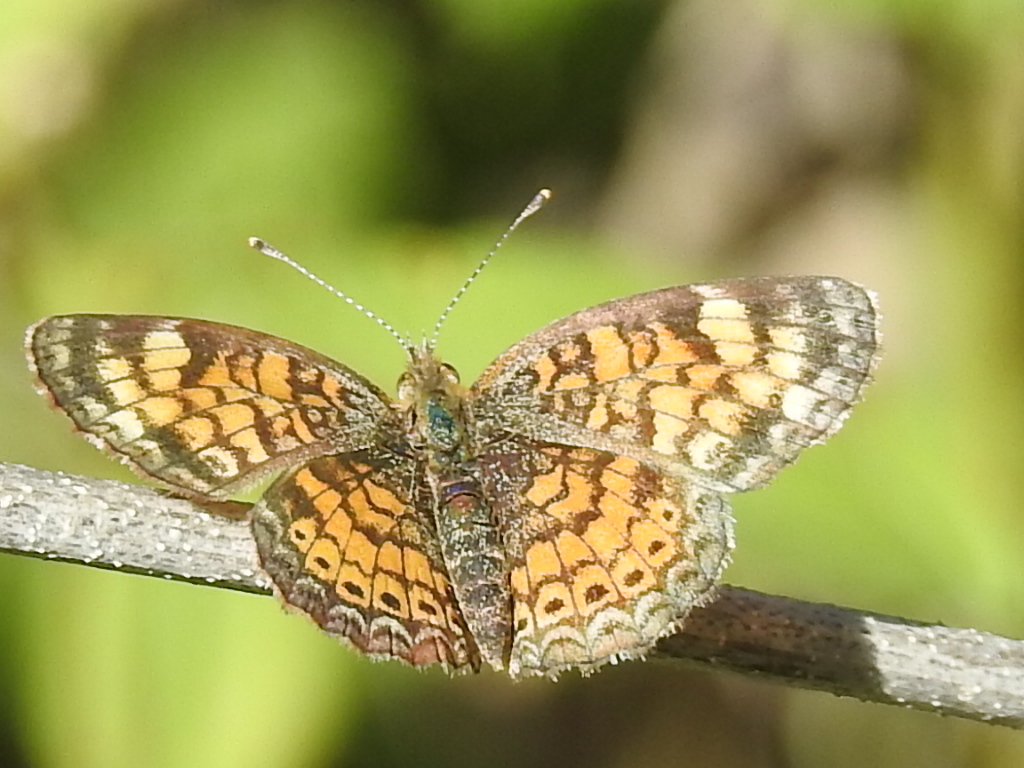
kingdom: Animalia
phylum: Arthropoda
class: Insecta
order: Lepidoptera
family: Nymphalidae
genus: Phyciodes
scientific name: Phyciodes tharos
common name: Pearl crescent
